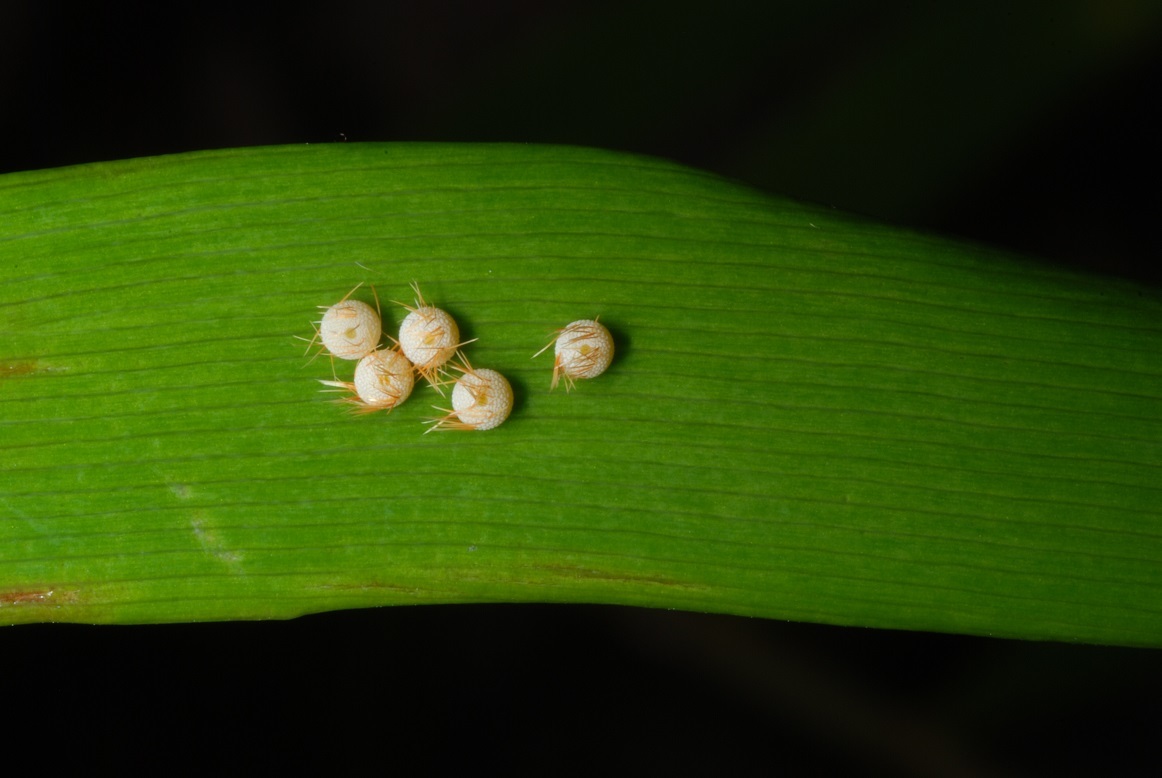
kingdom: Animalia
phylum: Arthropoda
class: Insecta
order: Lepidoptera
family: Lycaenidae
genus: Eumaeus
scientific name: Eumaeus atala
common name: Atala
